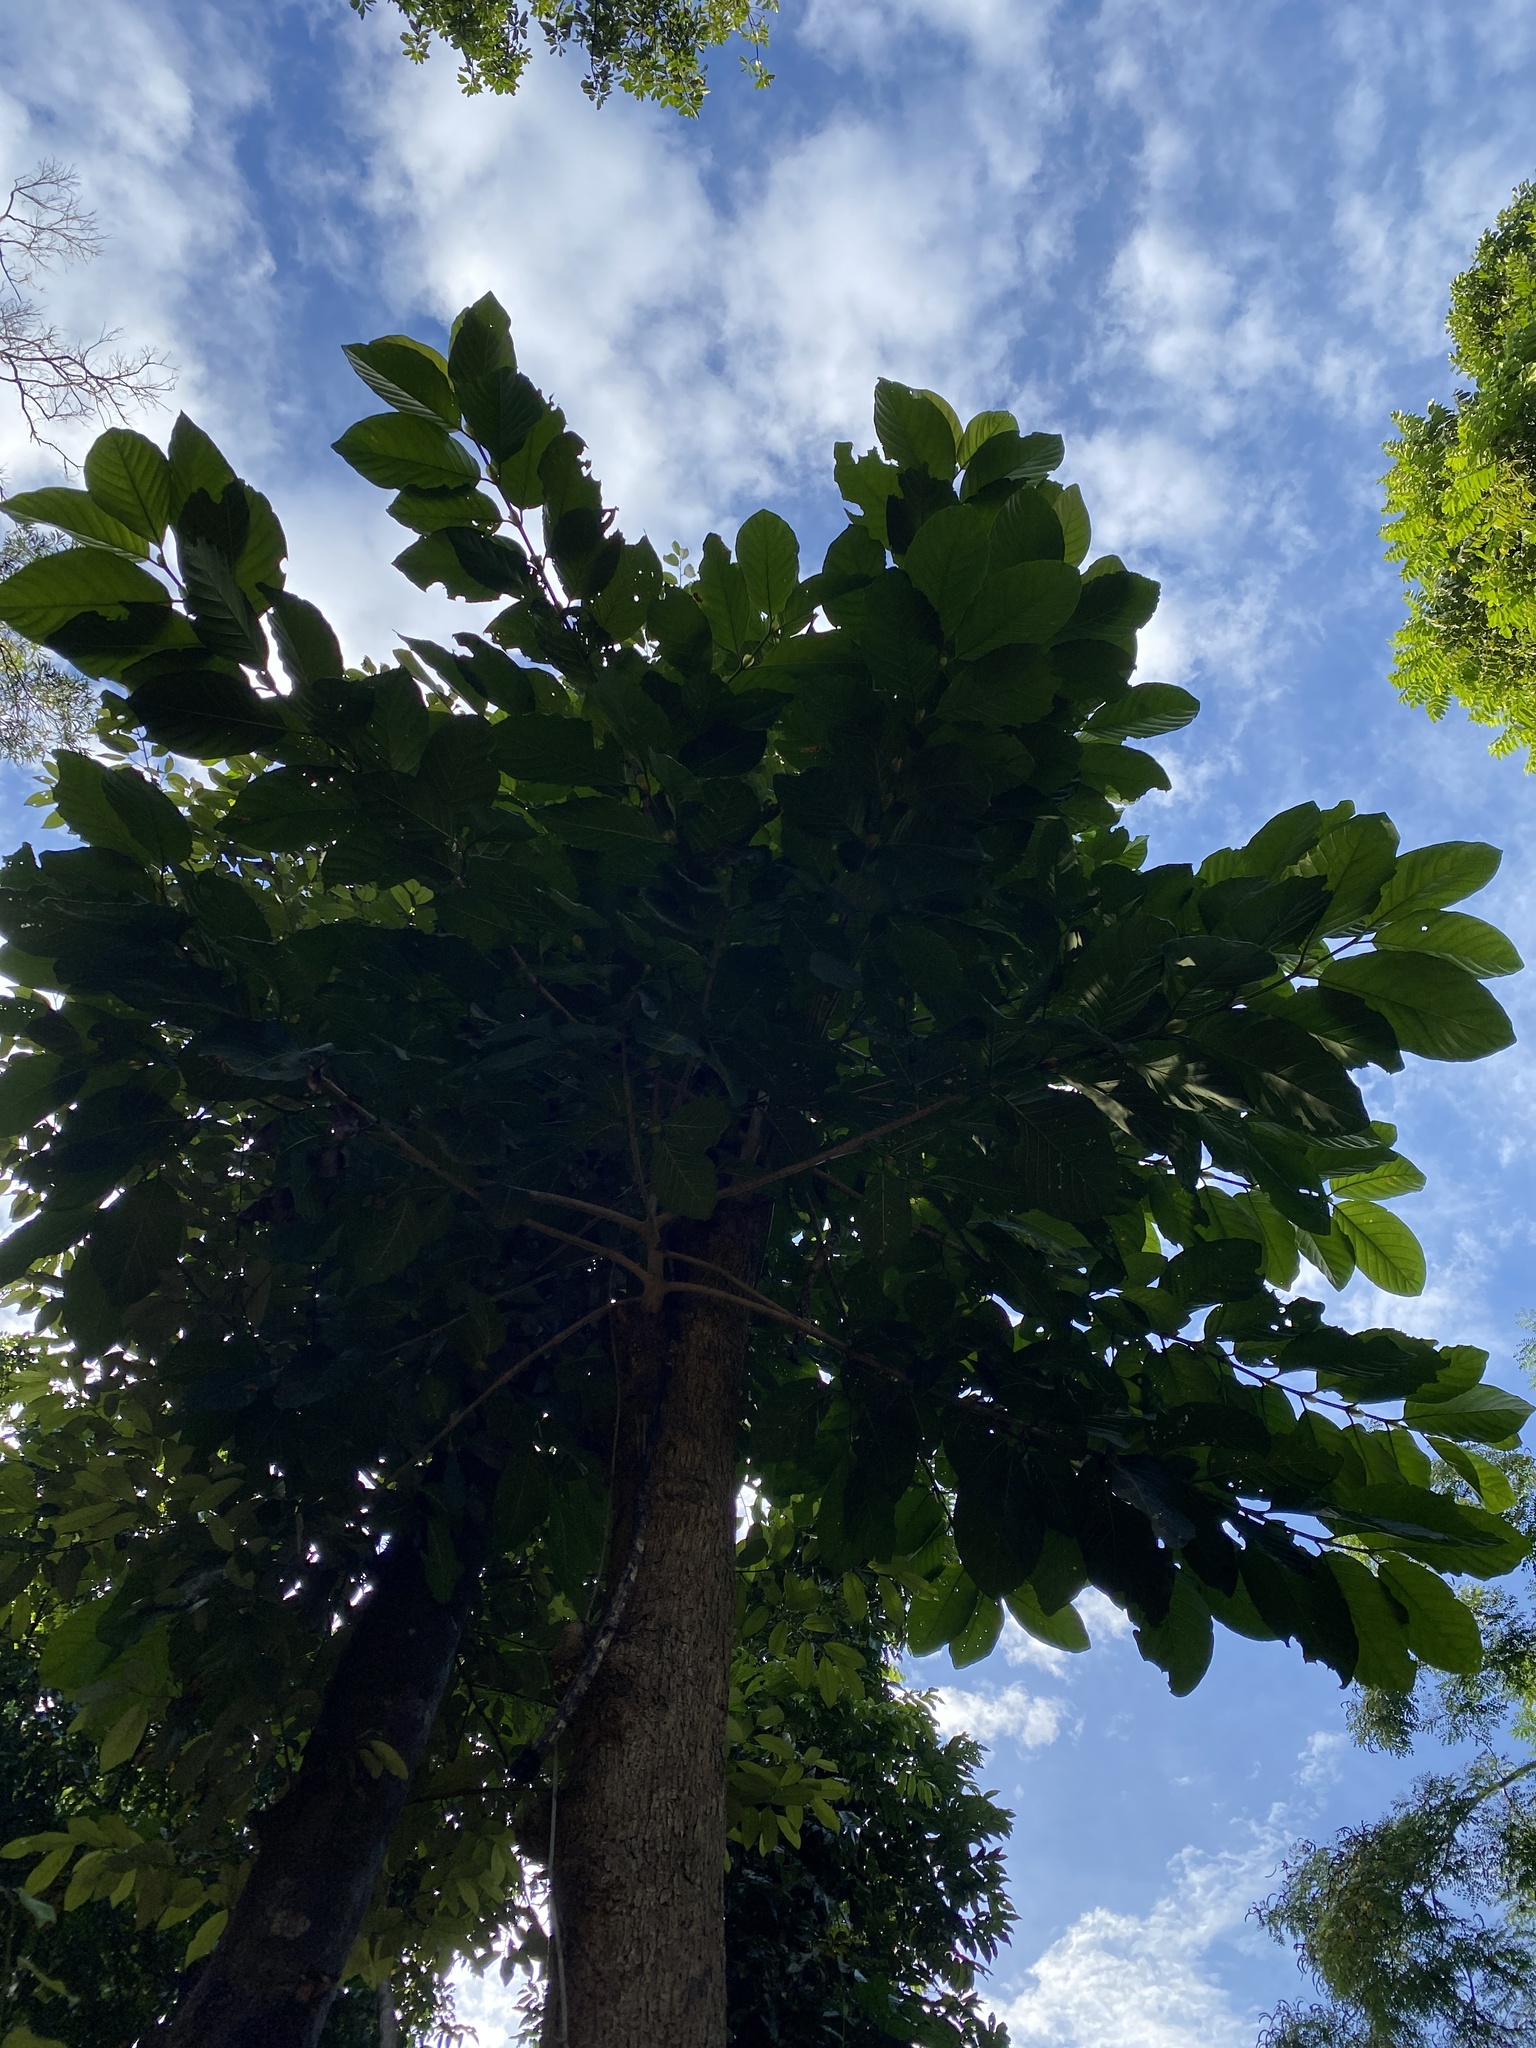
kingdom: Plantae
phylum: Tracheophyta
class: Magnoliopsida
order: Gentianales
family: Rubiaceae
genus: Nauclea
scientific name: Nauclea orientalis
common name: Leichhardt-pine
